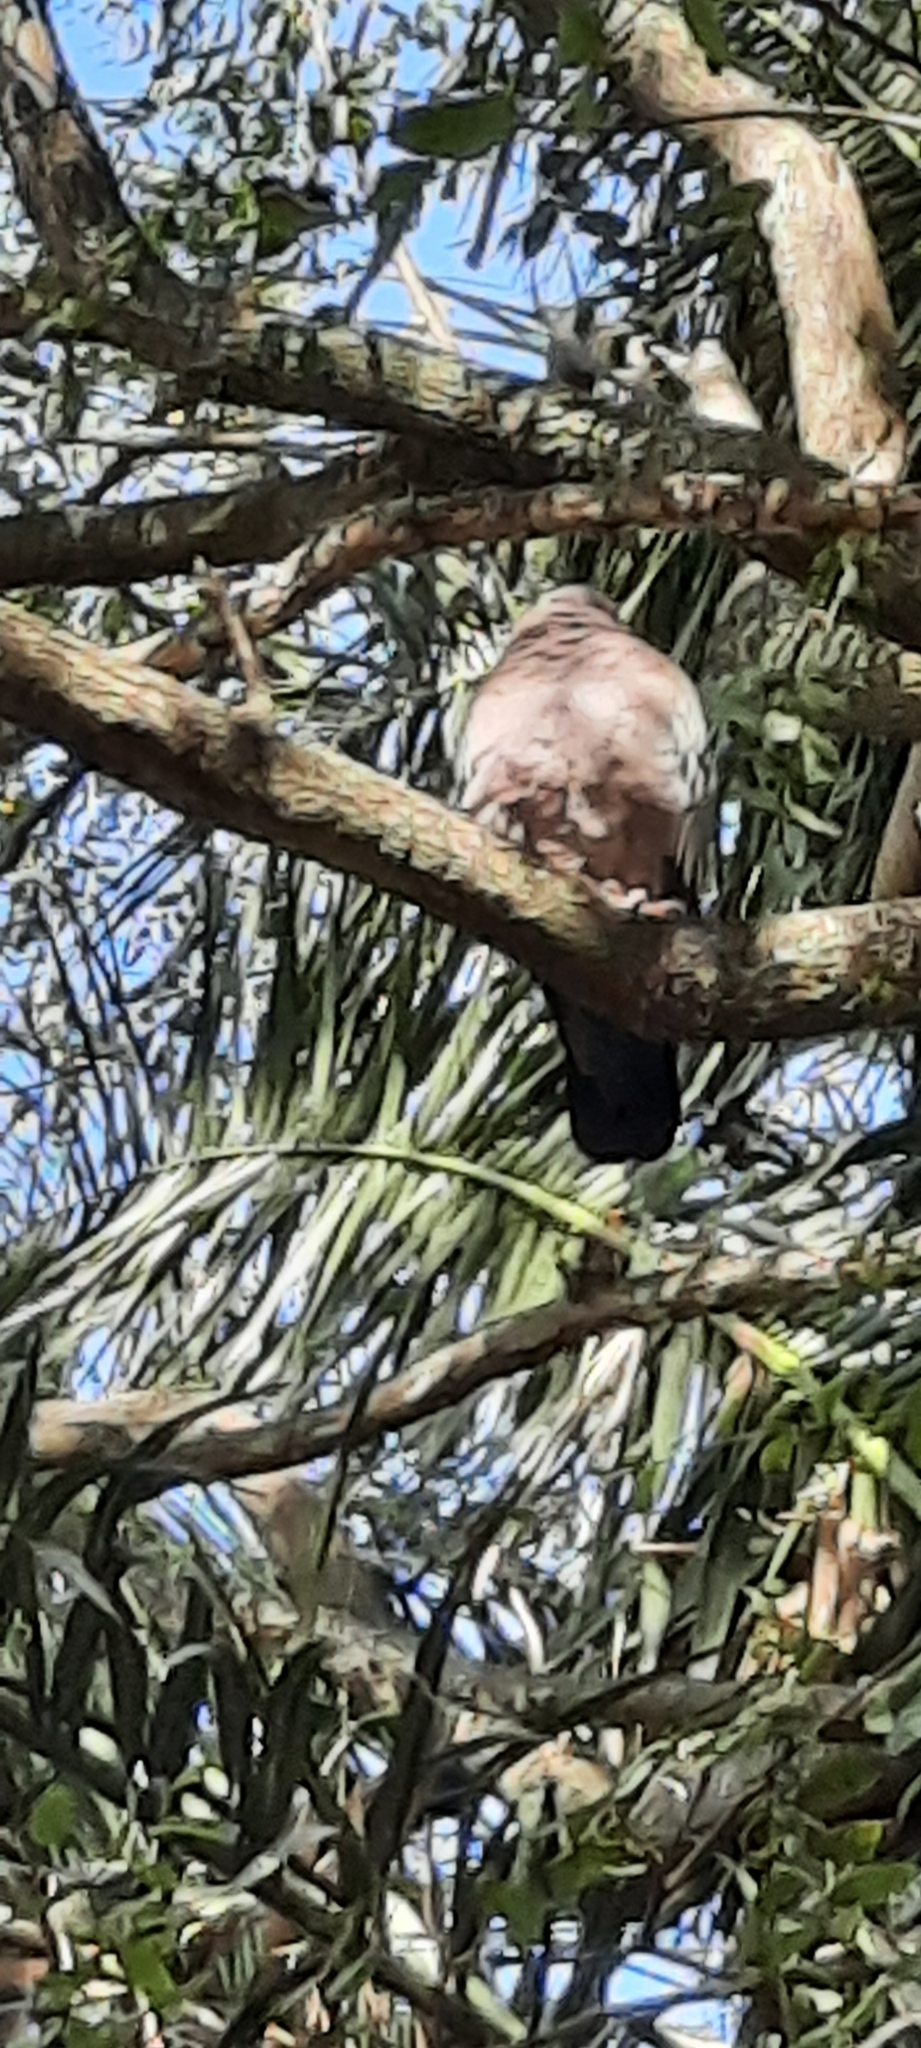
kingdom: Animalia
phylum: Chordata
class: Aves
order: Columbiformes
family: Columbidae
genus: Patagioenas
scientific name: Patagioenas picazuro
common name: Picazuro pigeon
